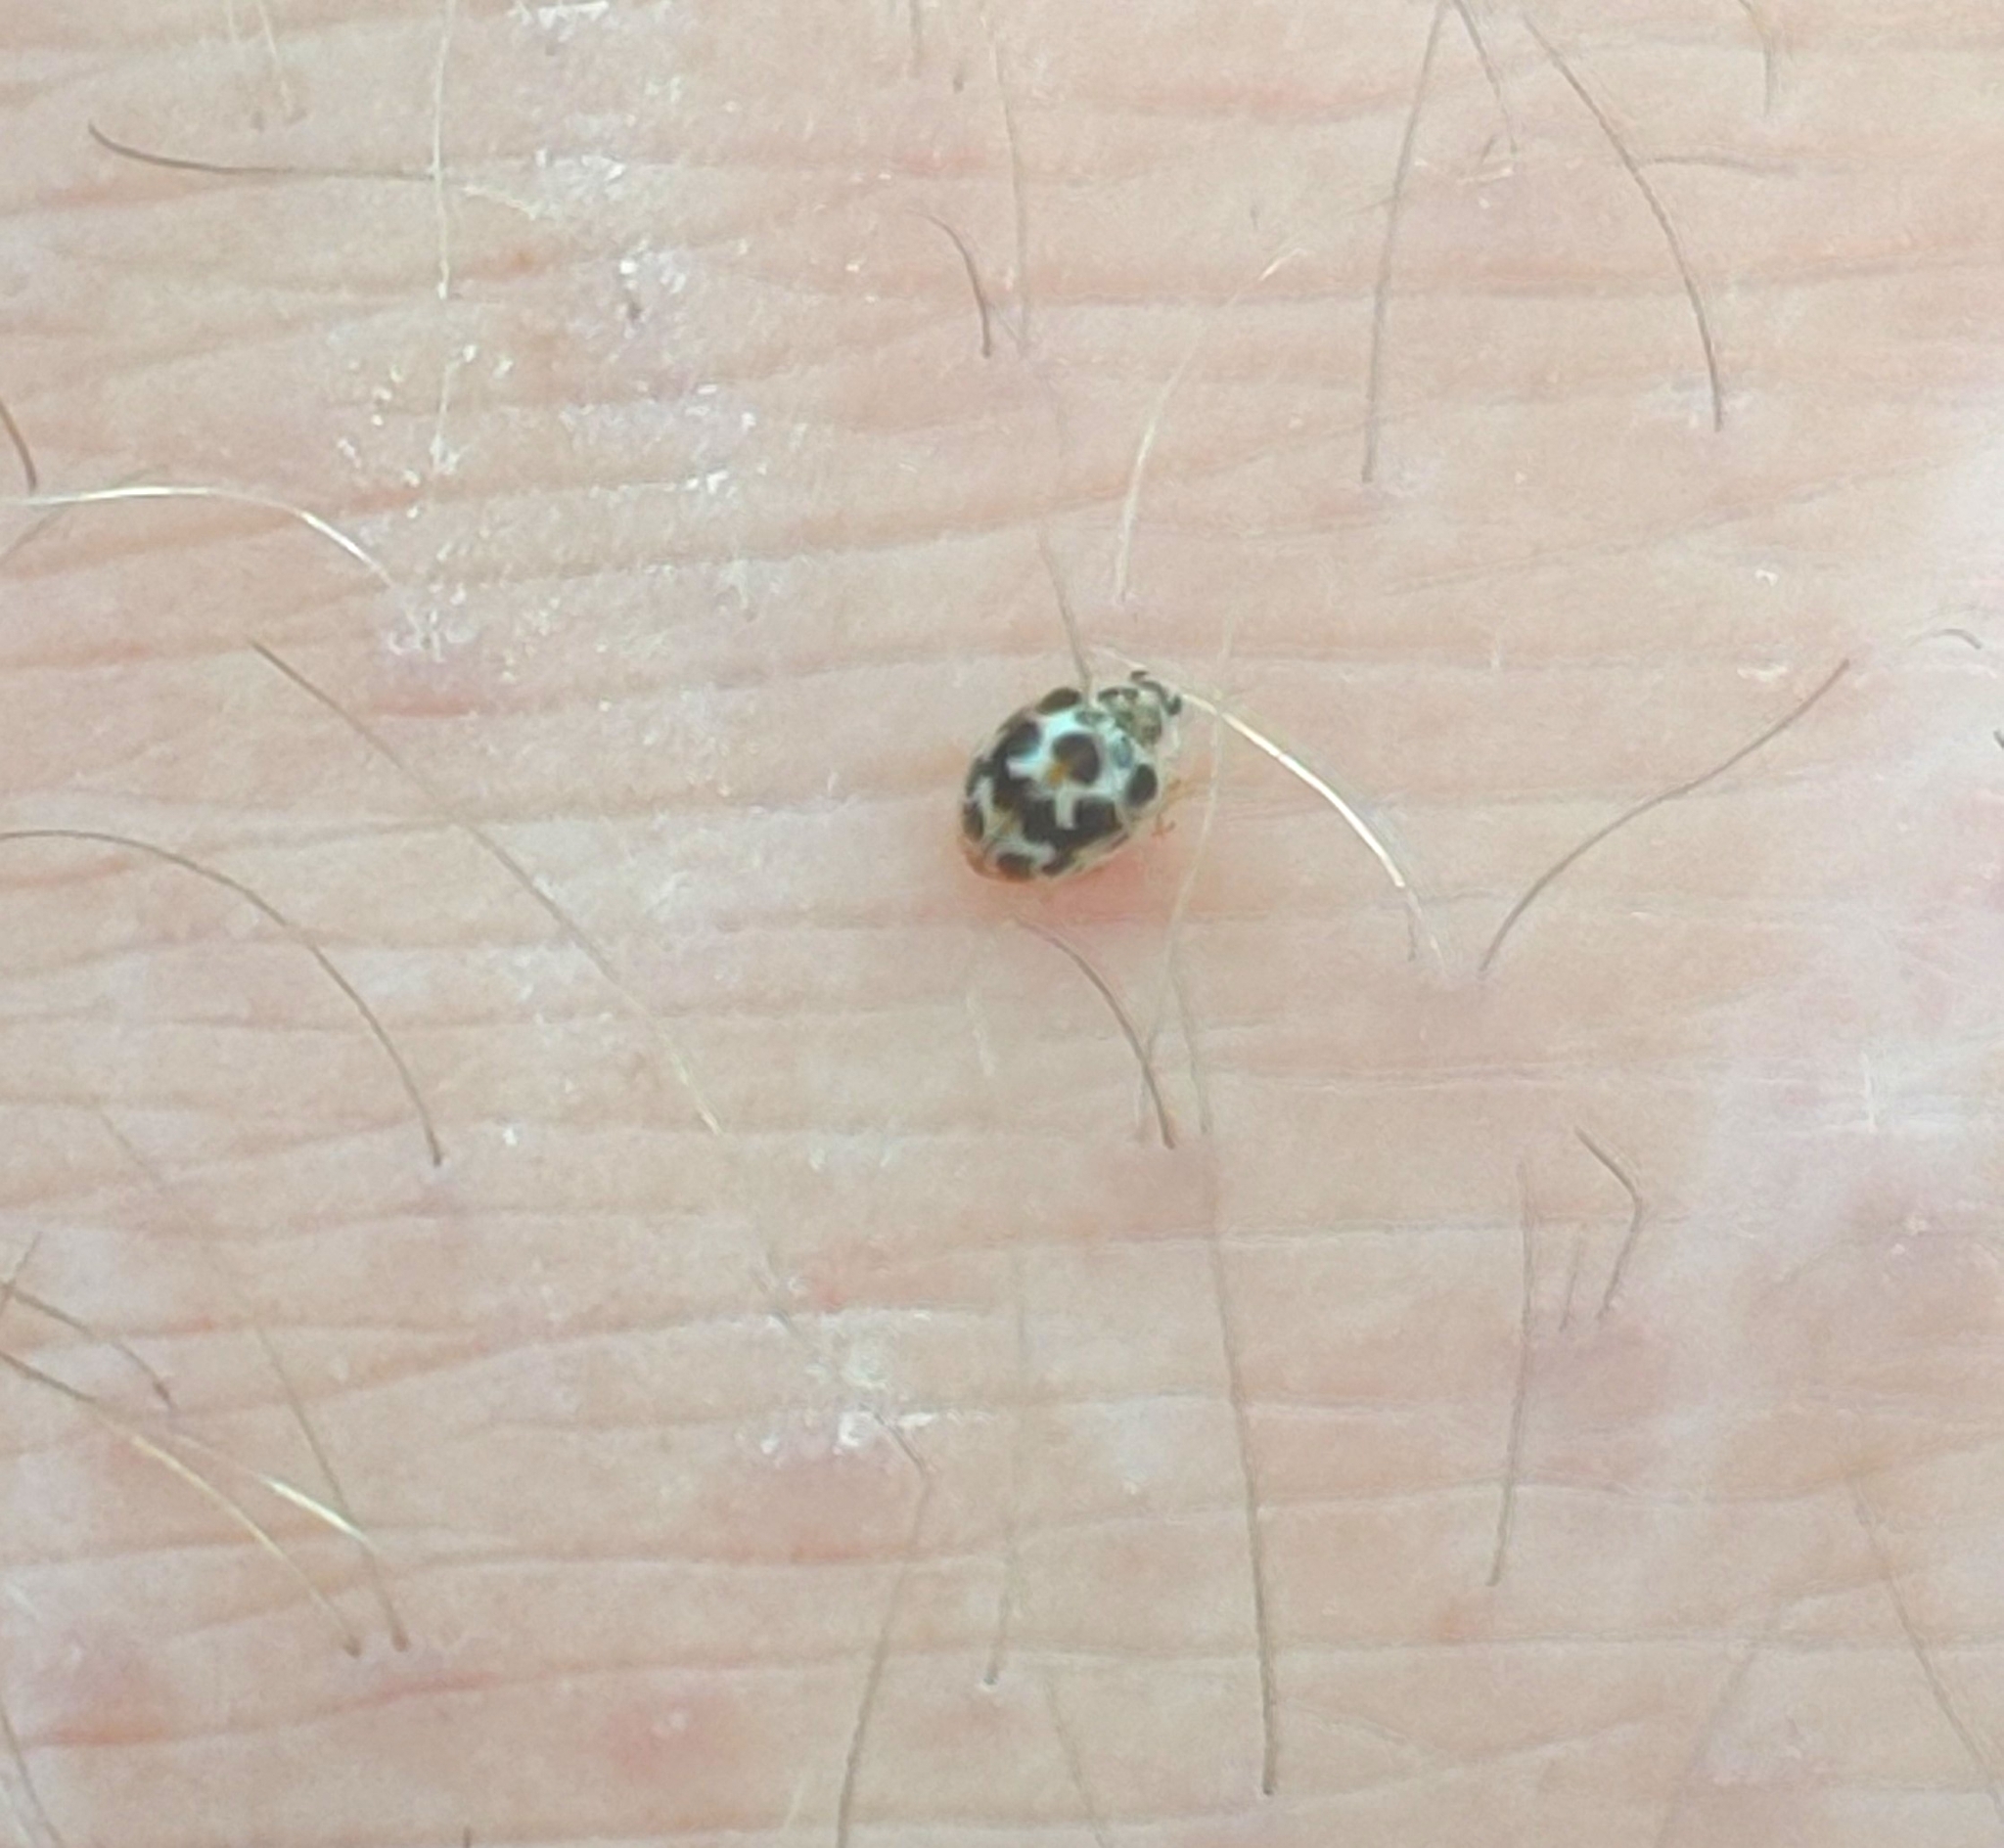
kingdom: Animalia
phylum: Arthropoda
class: Insecta
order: Coleoptera
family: Coccinellidae
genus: Psyllobora
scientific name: Psyllobora vigintimaculata
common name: Ladybird beetle
